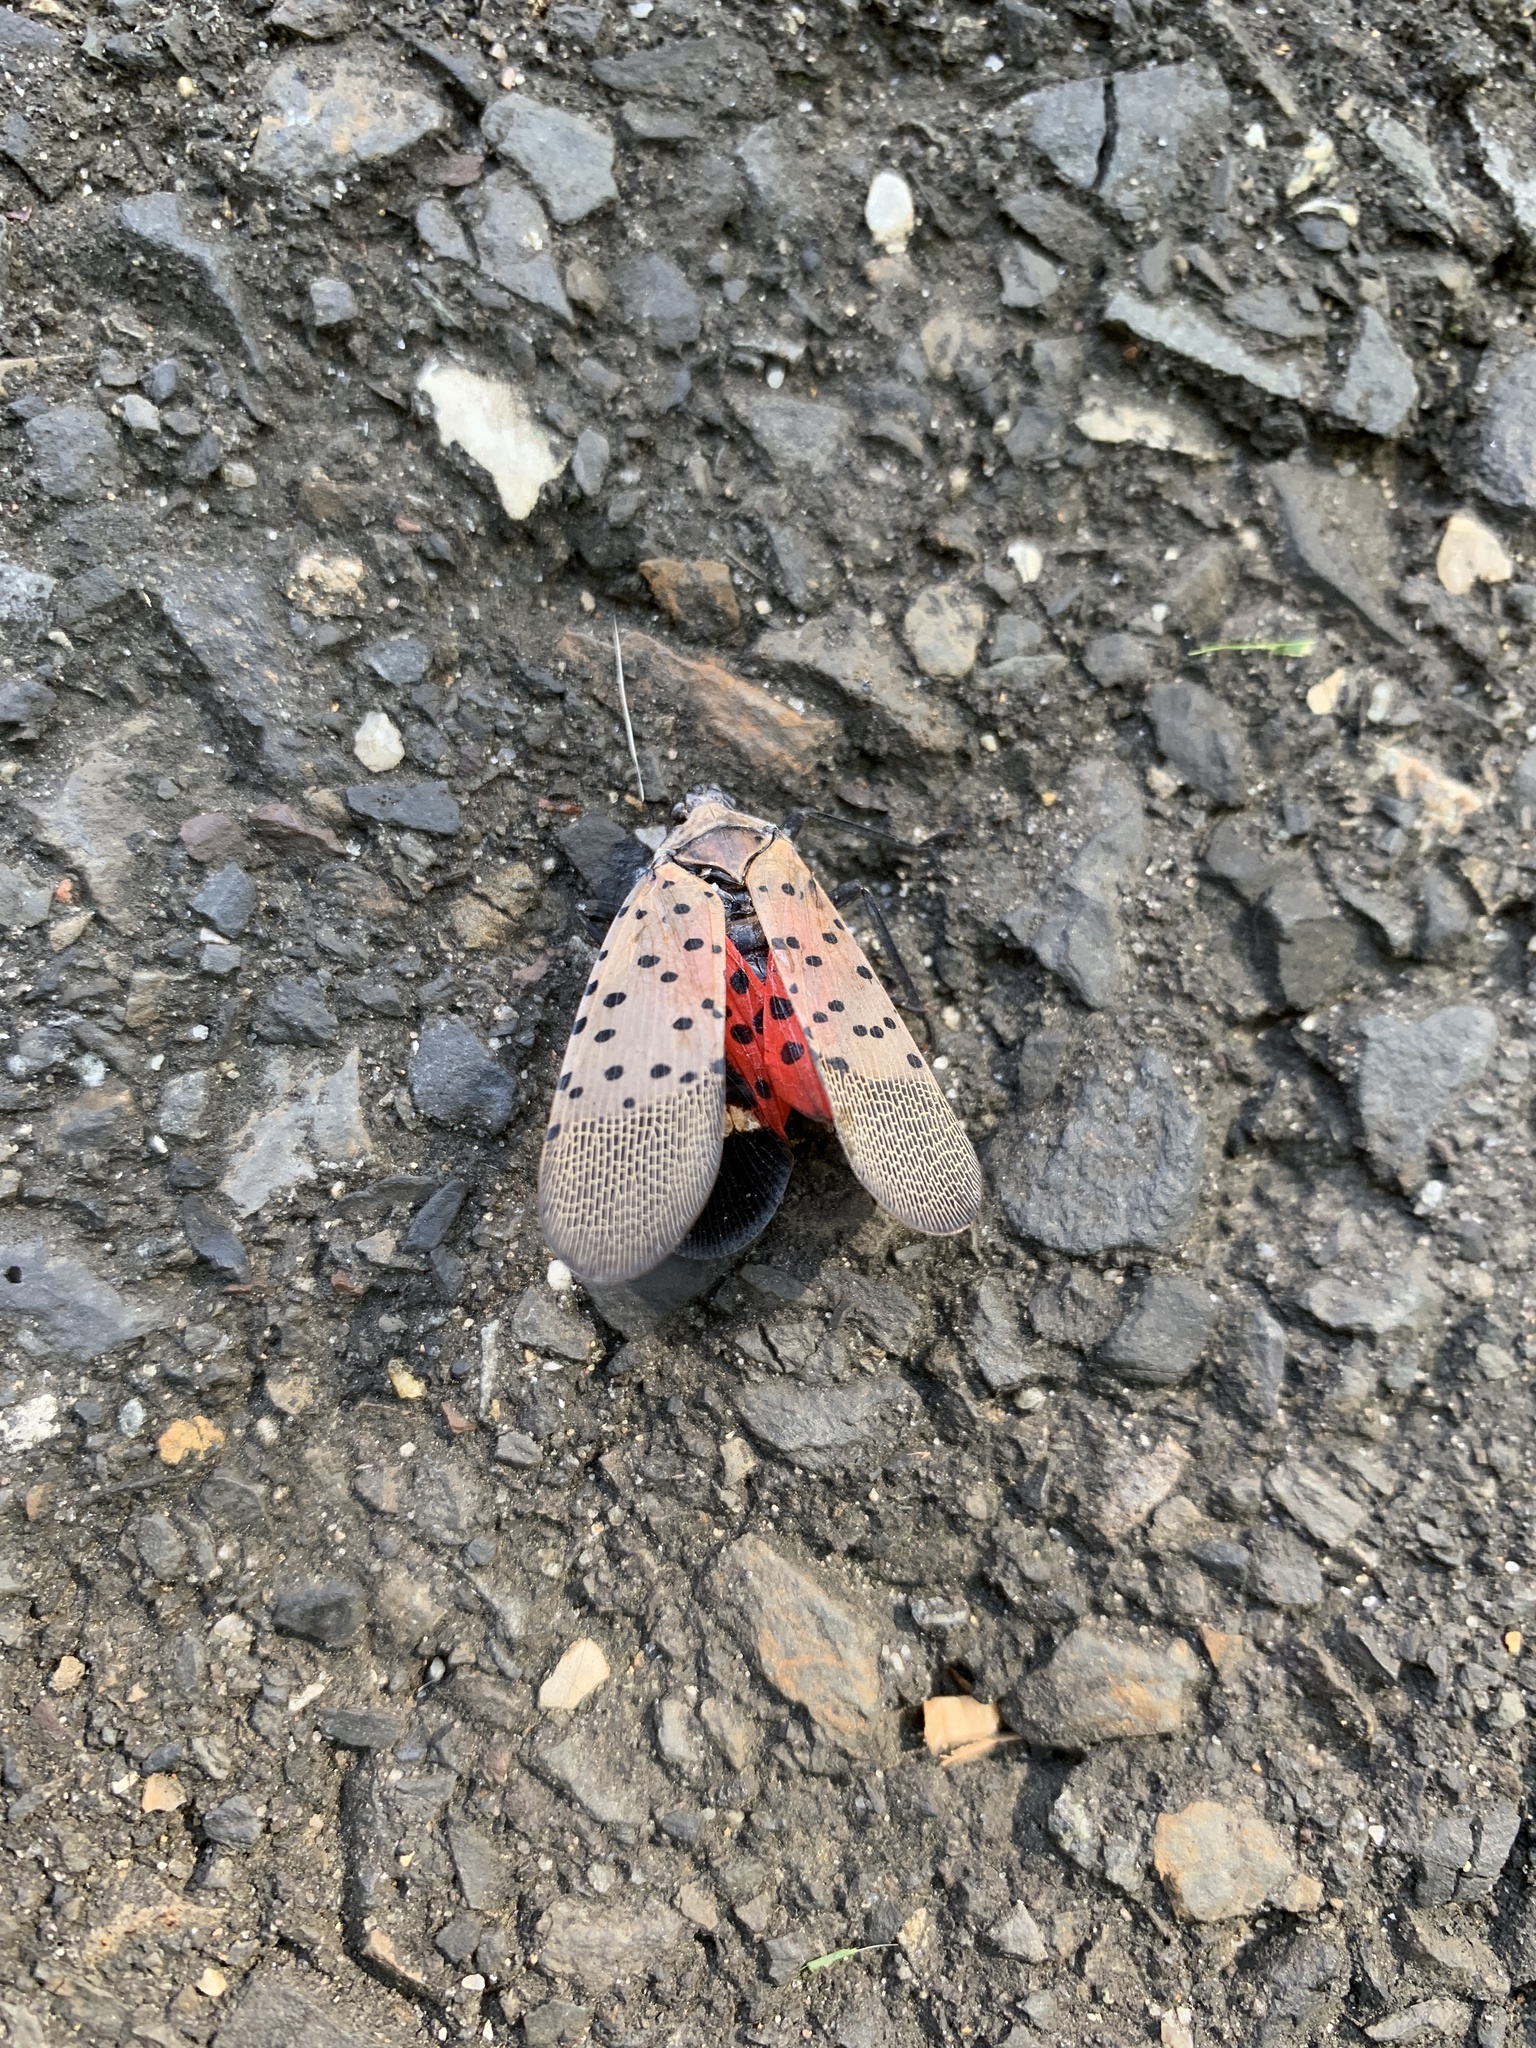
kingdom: Animalia
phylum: Arthropoda
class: Insecta
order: Hemiptera
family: Fulgoridae
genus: Lycorma
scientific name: Lycorma delicatula
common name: Spotted lanternfly
